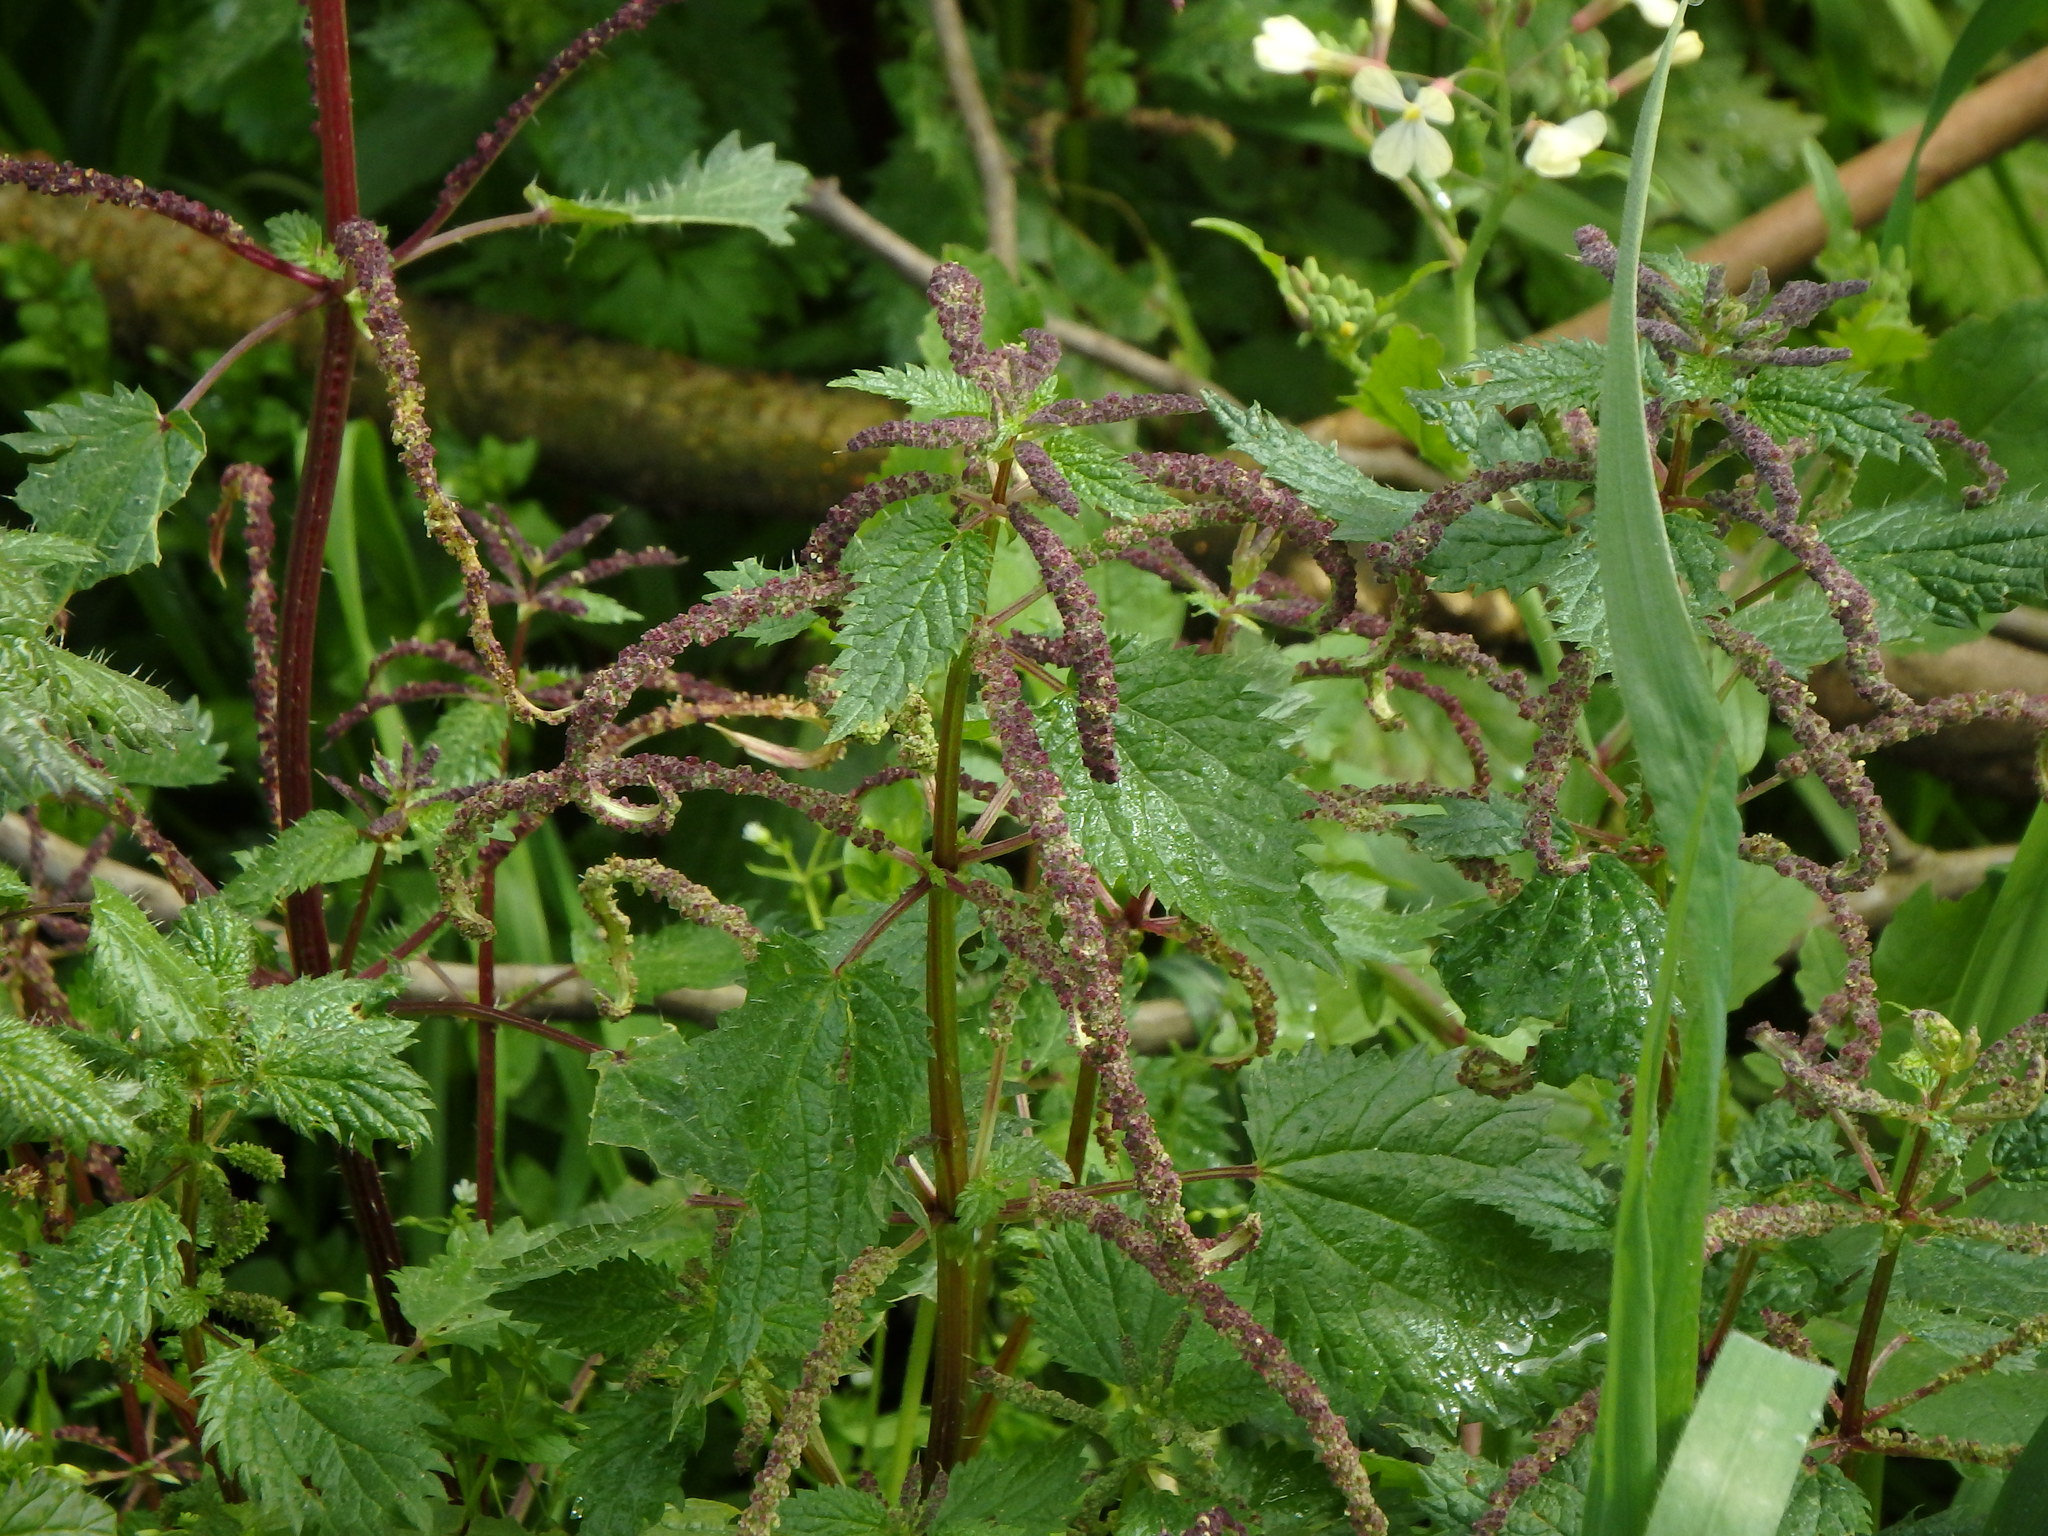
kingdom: Plantae
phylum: Tracheophyta
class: Magnoliopsida
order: Rosales
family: Urticaceae
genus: Urtica
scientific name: Urtica membranacea
